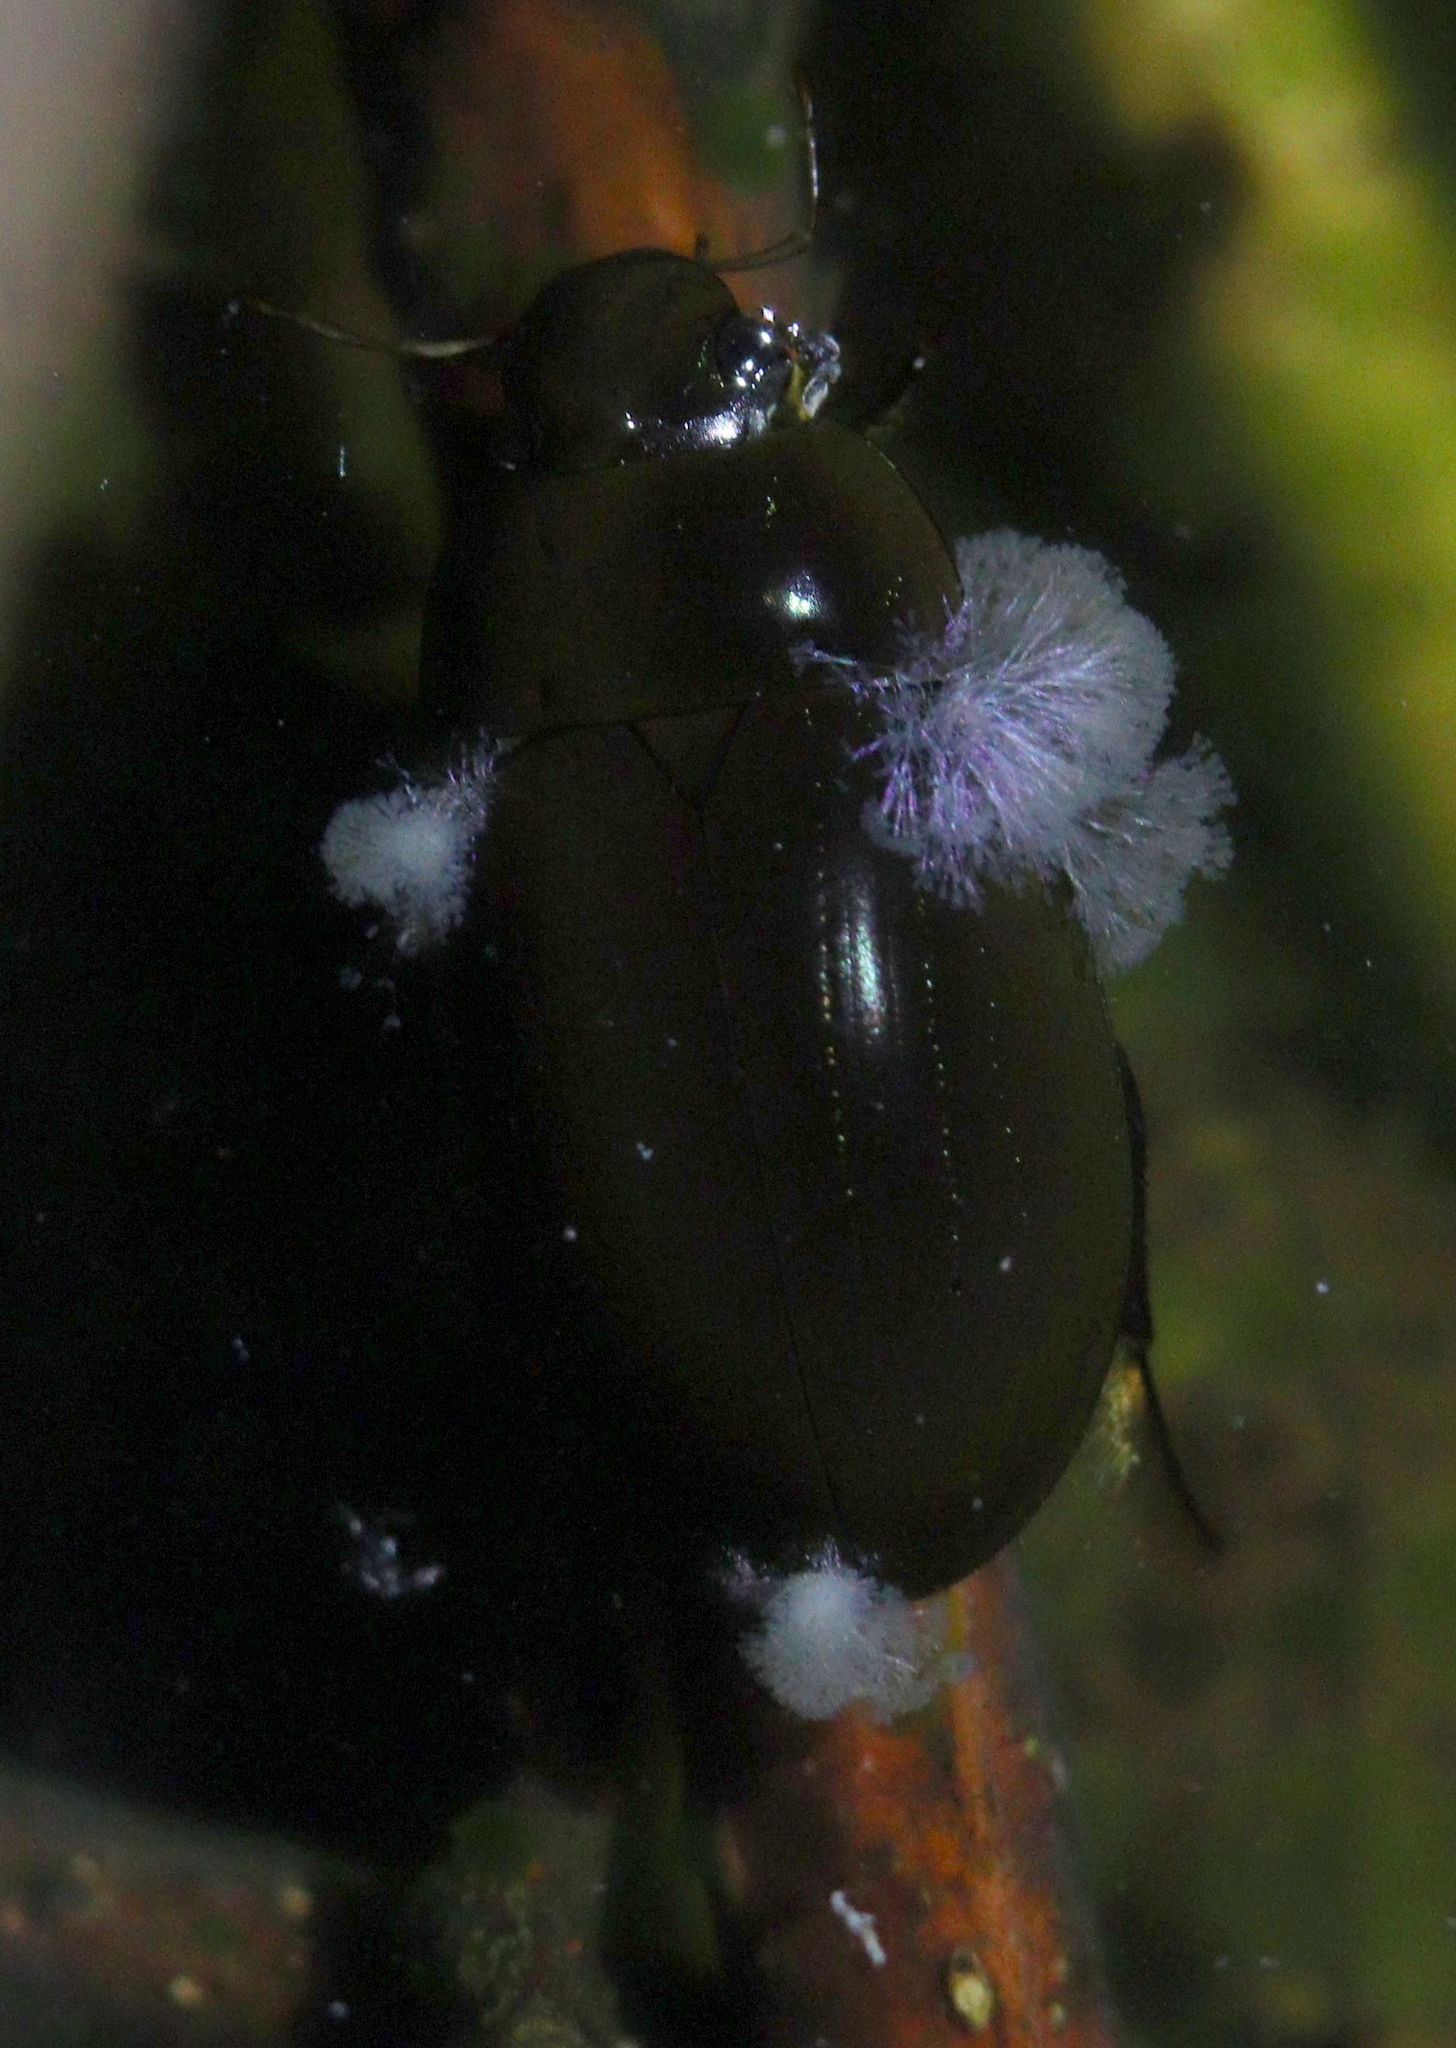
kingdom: Animalia
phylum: Arthropoda
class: Insecta
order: Coleoptera
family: Hydrophilidae
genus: Hydrochara
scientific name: Hydrochara caraboides
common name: Lesser silver water beetle
